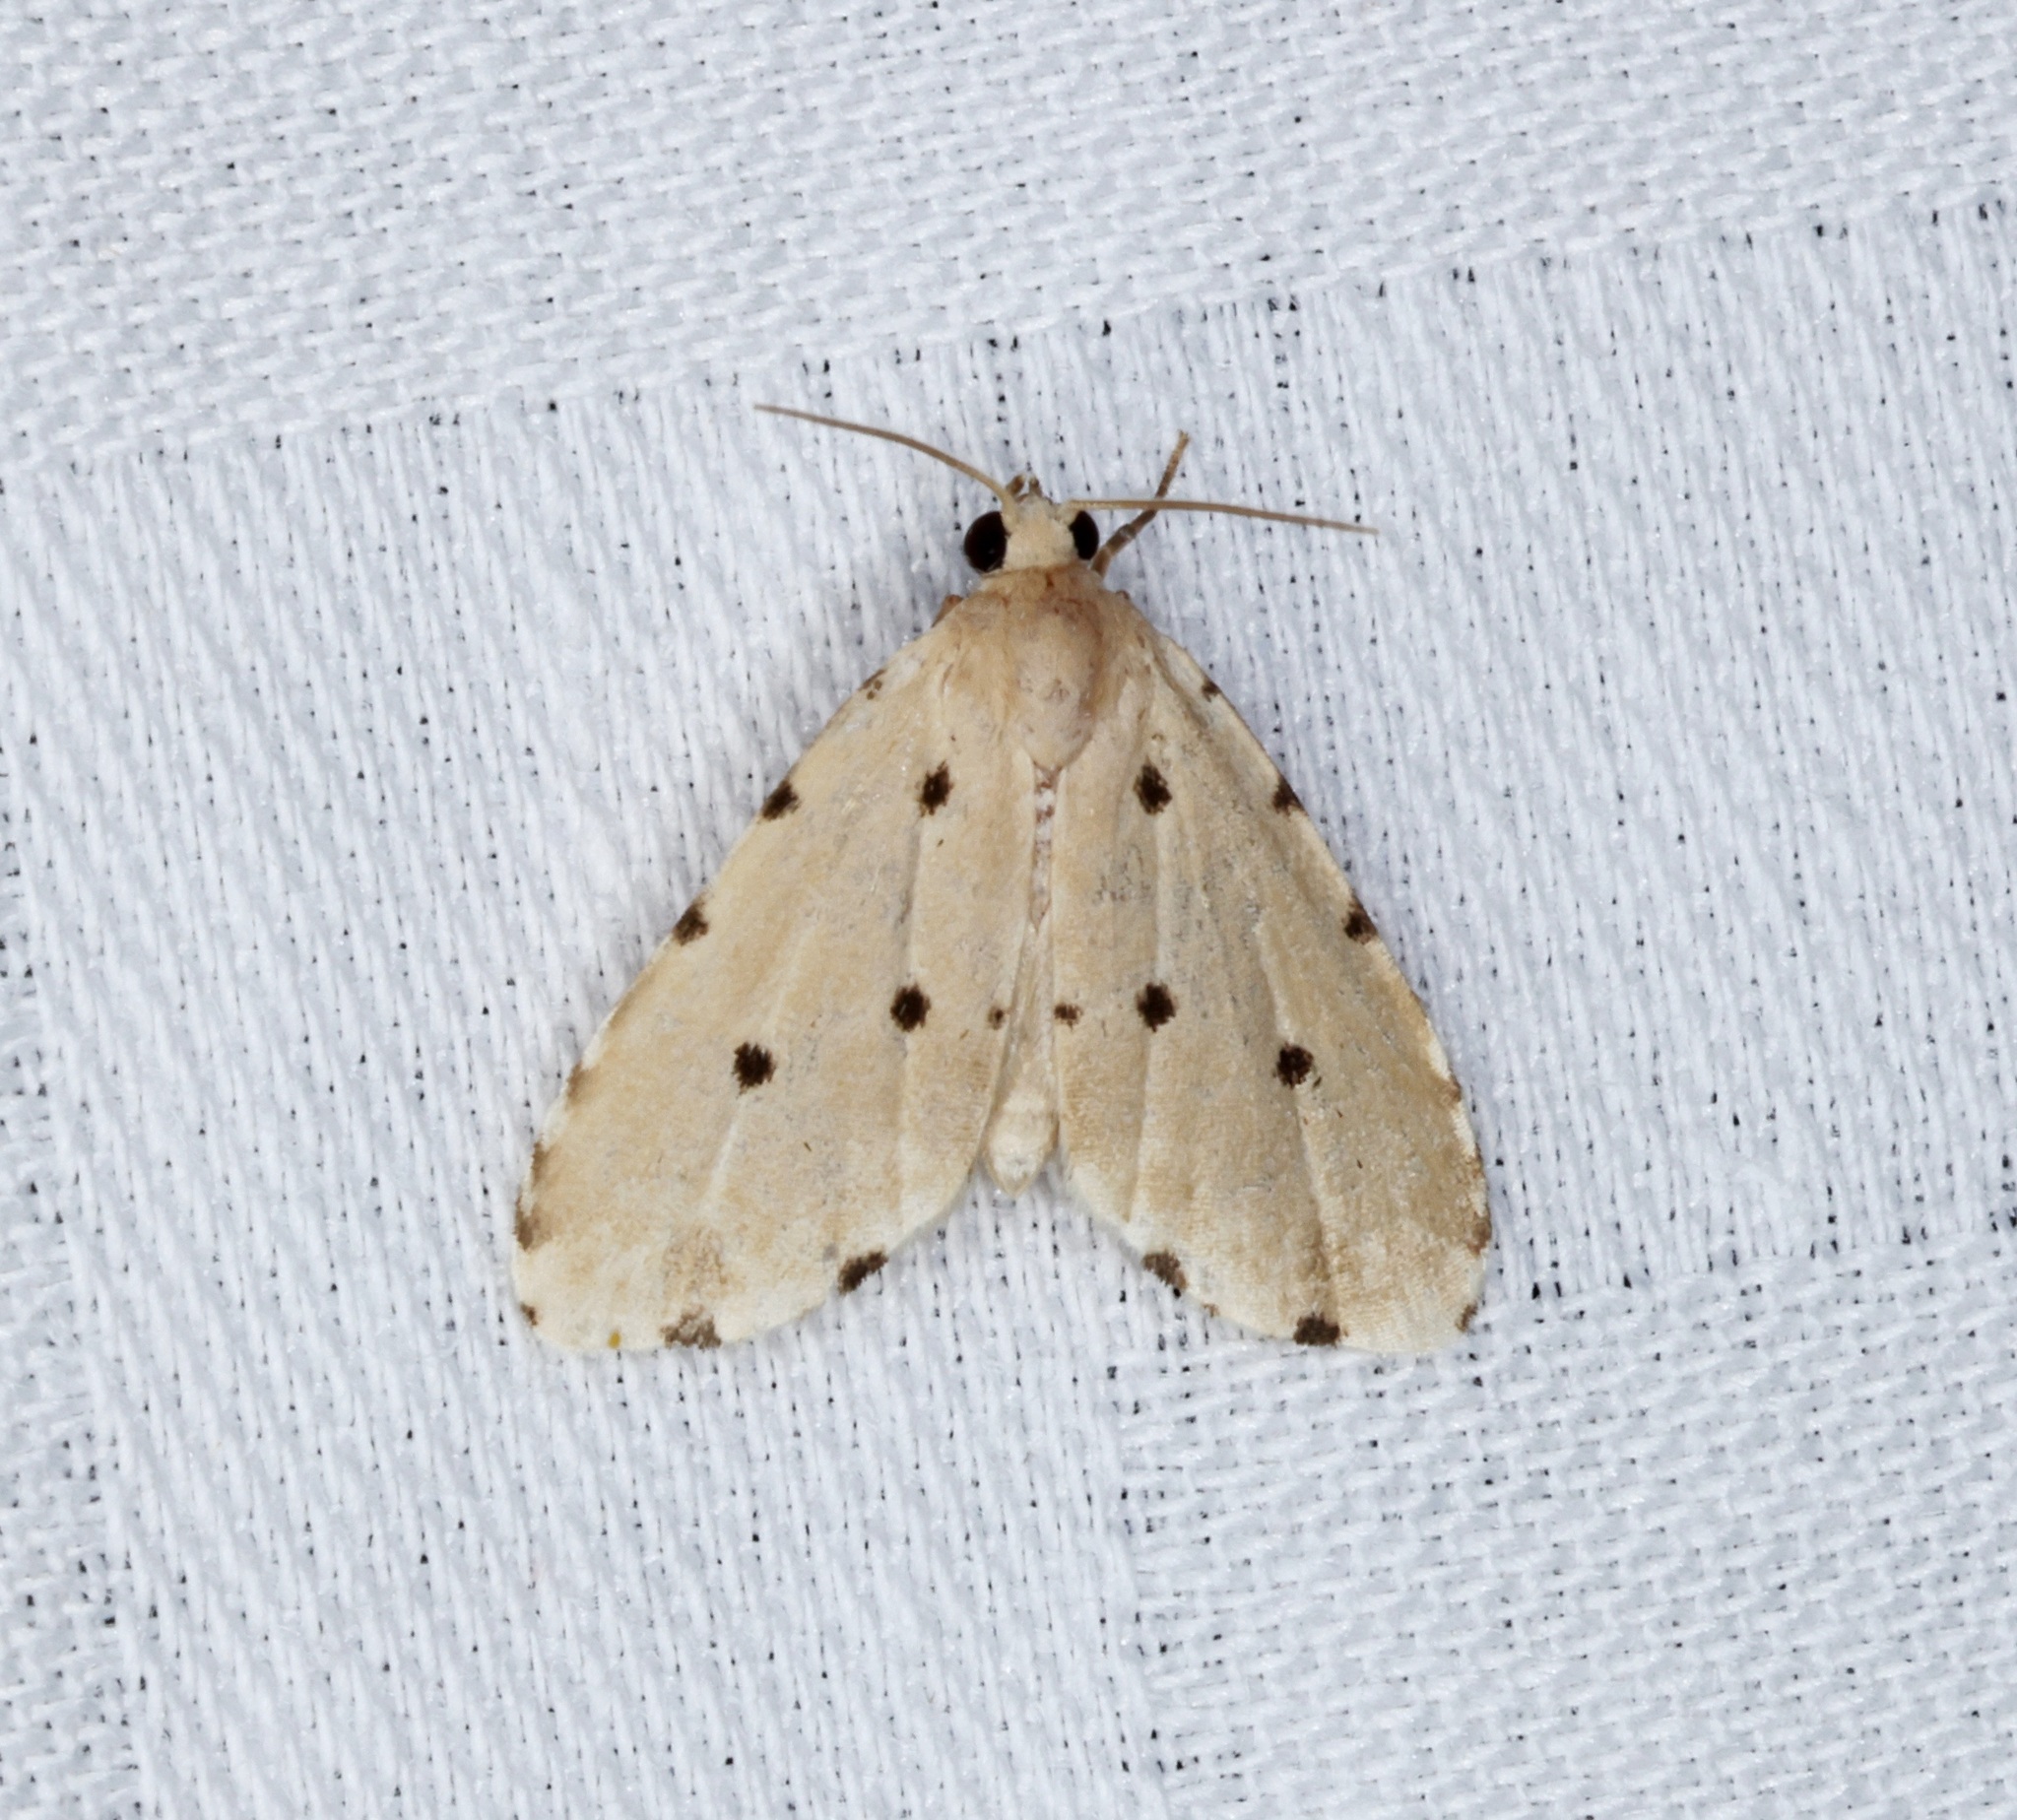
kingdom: Animalia
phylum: Arthropoda
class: Insecta
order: Lepidoptera
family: Noctuidae
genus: Metaemene
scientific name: Metaemene atrigutta
